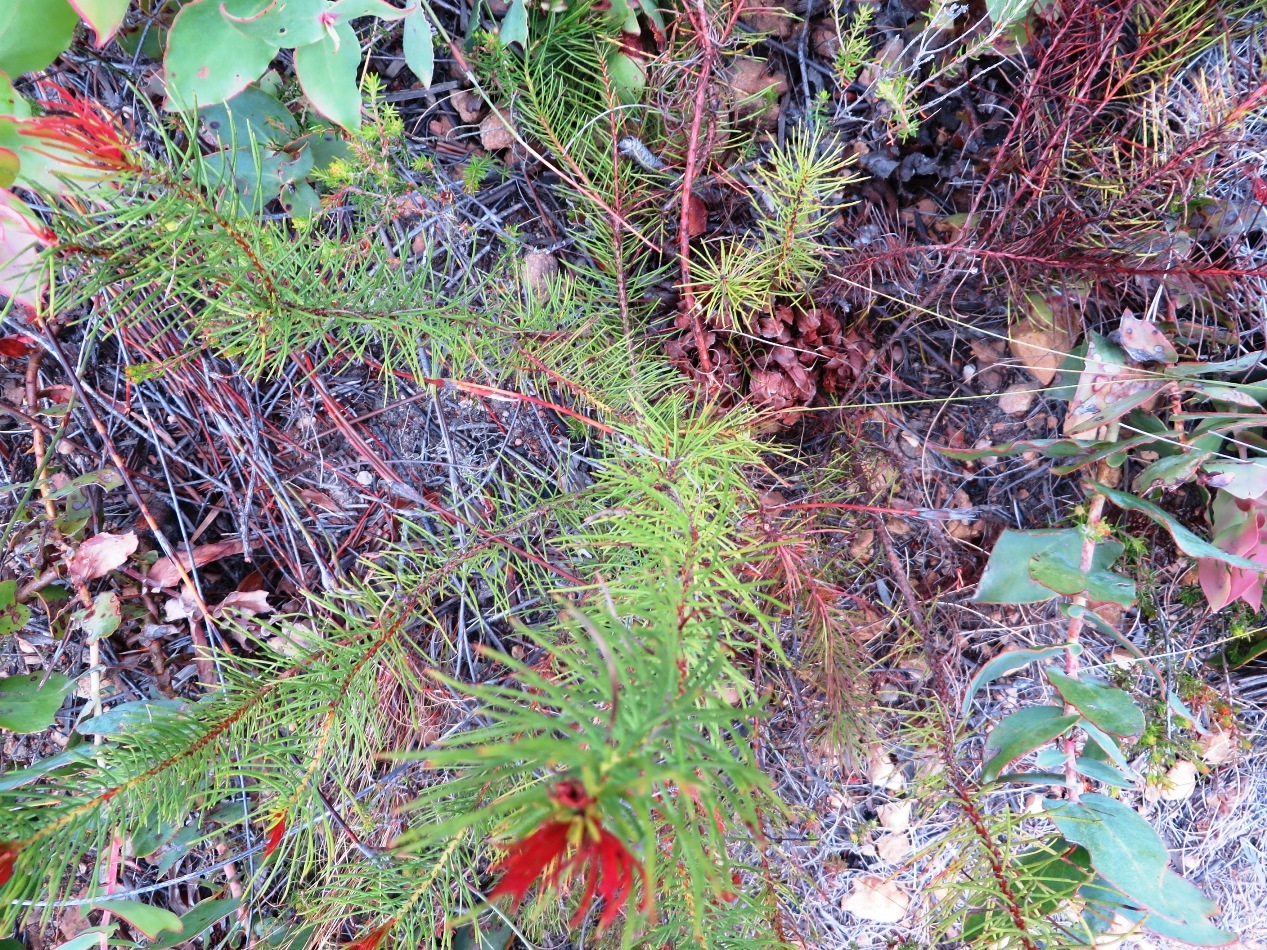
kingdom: Plantae
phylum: Tracheophyta
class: Magnoliopsida
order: Proteales
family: Proteaceae
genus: Protea
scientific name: Protea subulifolia
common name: Awl-leaf sugarbush
